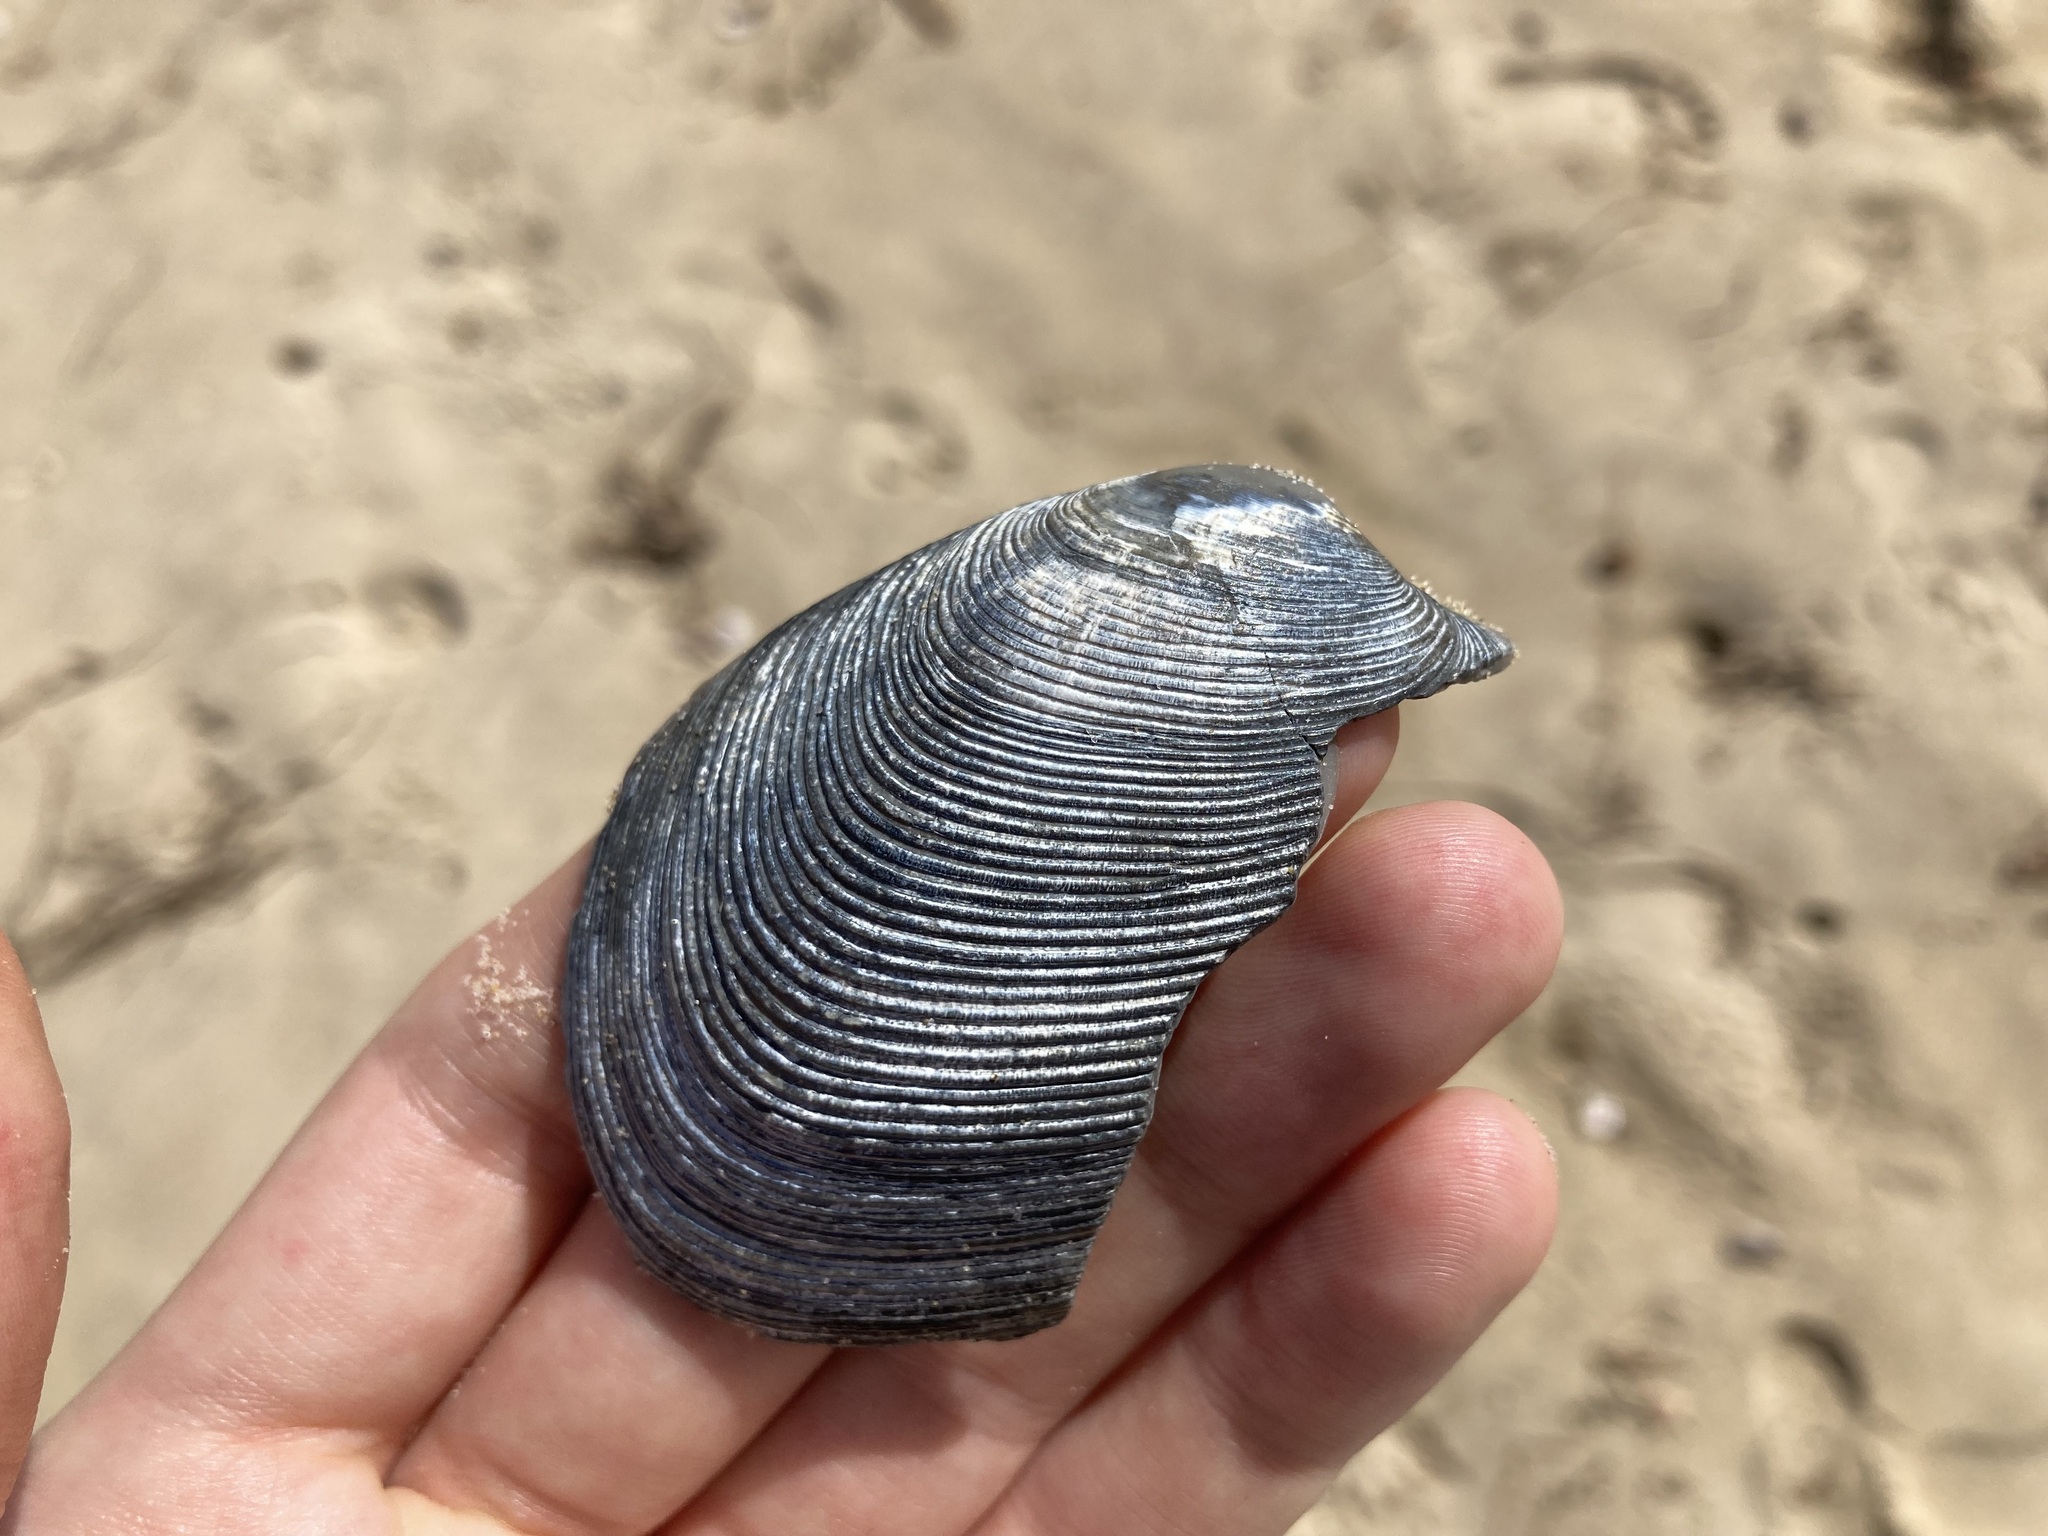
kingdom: Animalia
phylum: Mollusca
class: Bivalvia
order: Venerida
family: Veneridae
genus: Tapes
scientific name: Tapes conspersus
